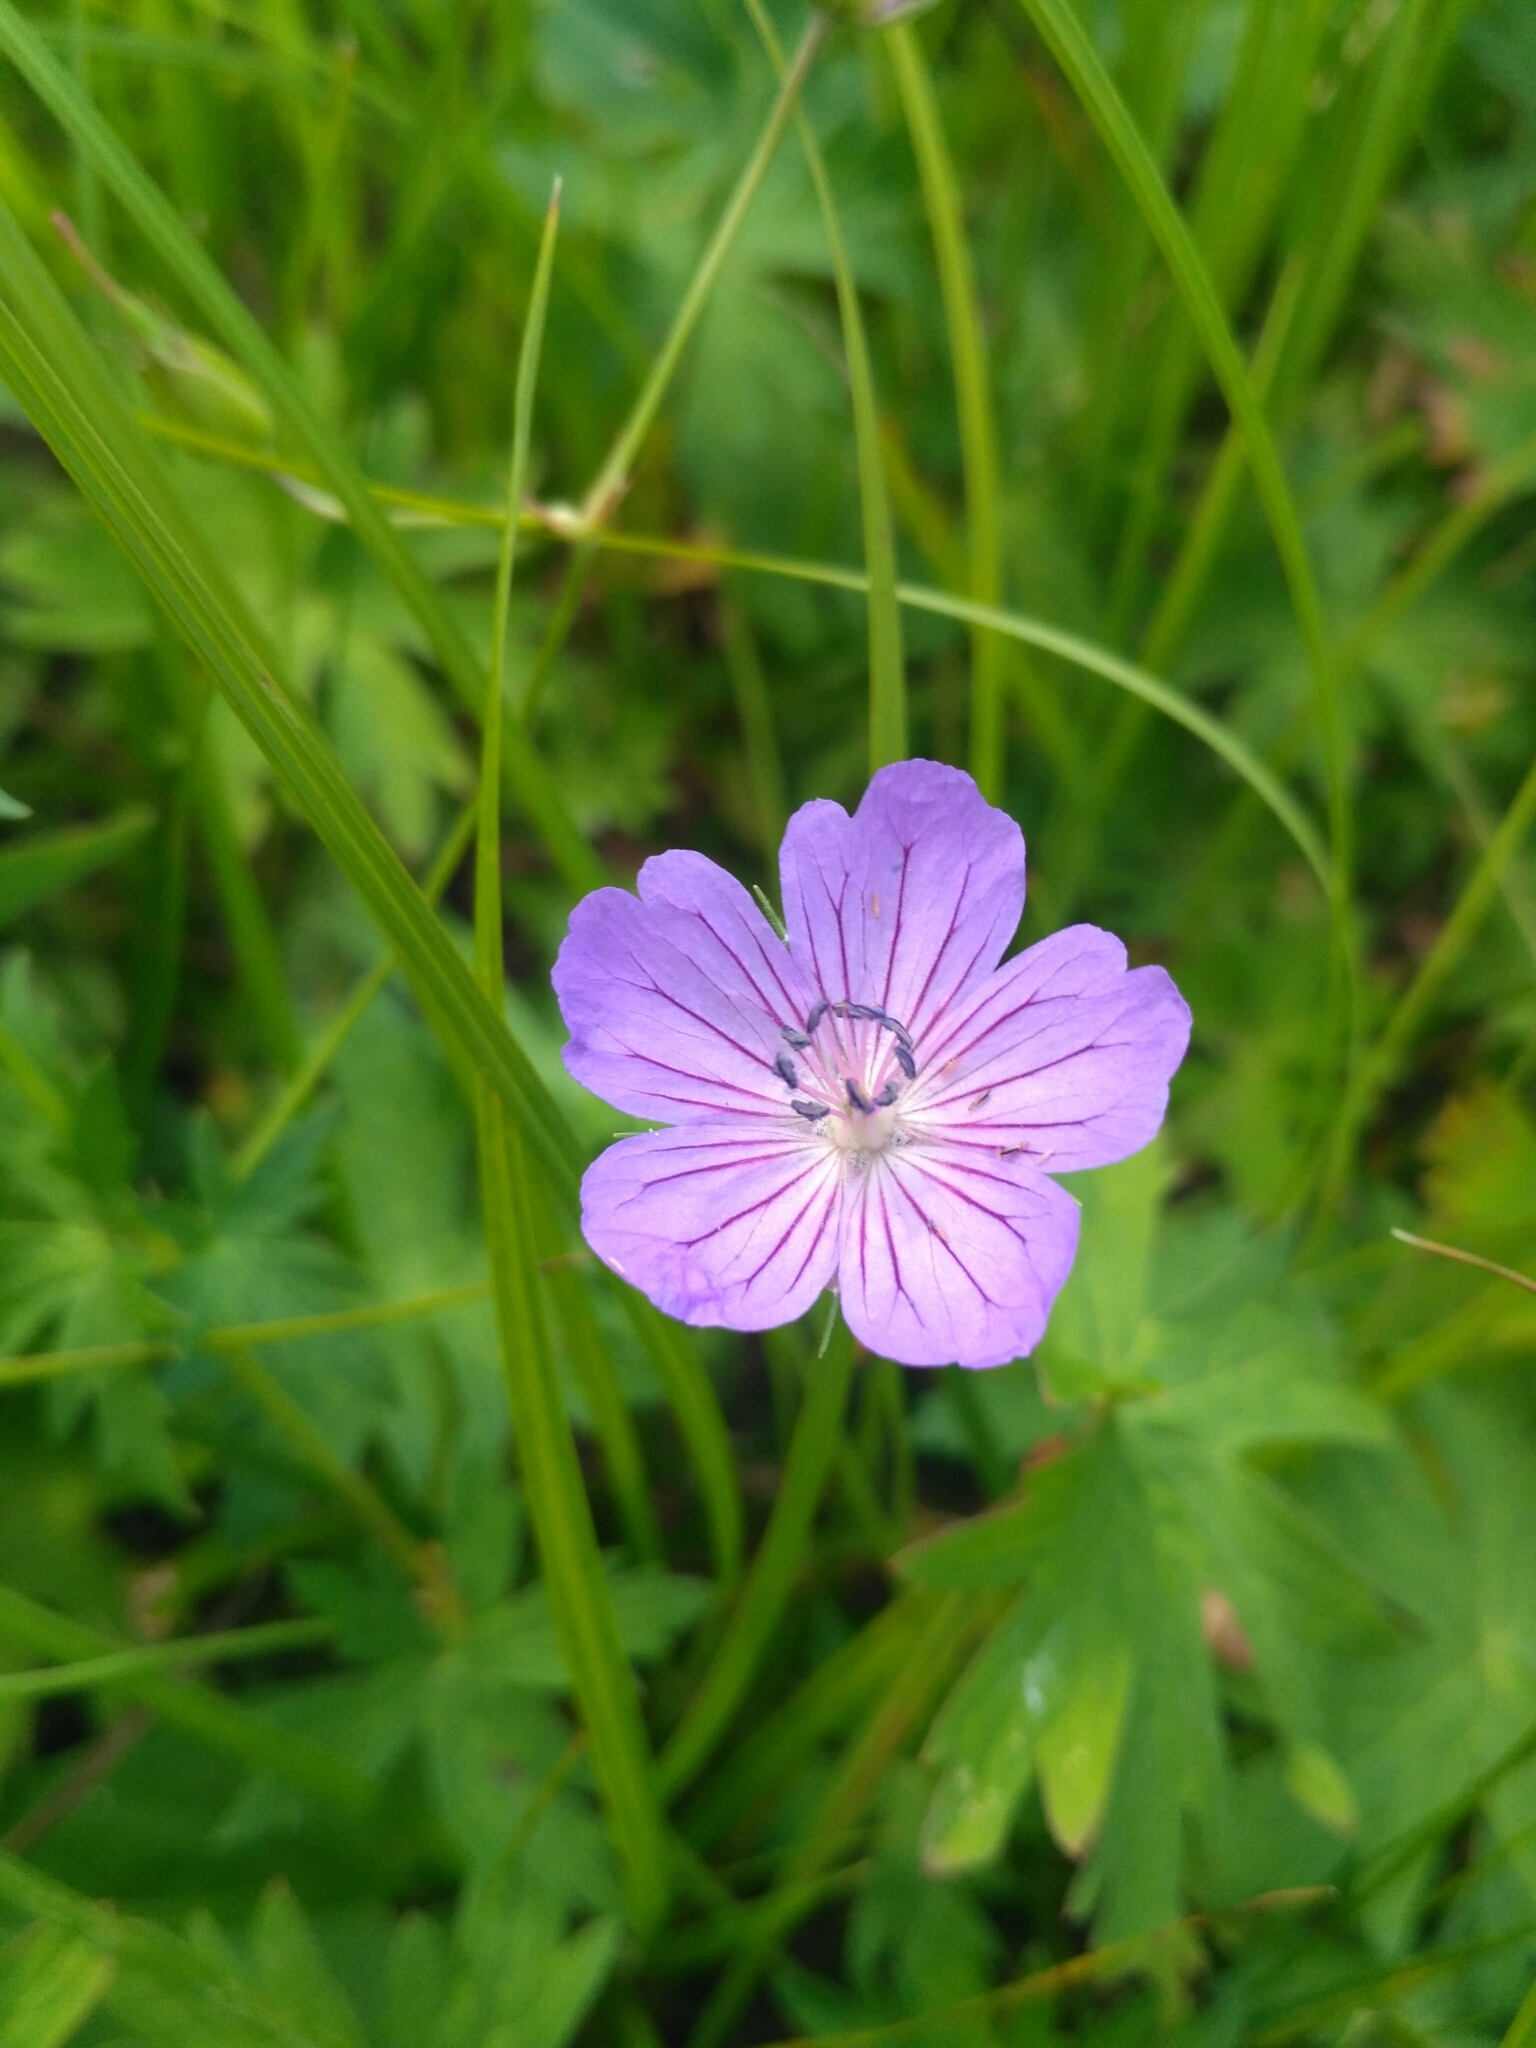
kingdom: Plantae
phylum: Tracheophyta
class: Magnoliopsida
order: Geraniales
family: Geraniaceae
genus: Geranium
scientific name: Geranium collinum
